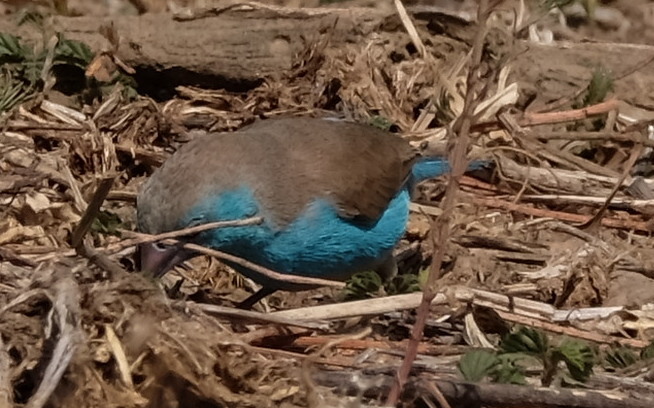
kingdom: Animalia
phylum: Chordata
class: Aves
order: Passeriformes
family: Estrildidae
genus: Uraeginthus
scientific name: Uraeginthus angolensis
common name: Blue waxbill
